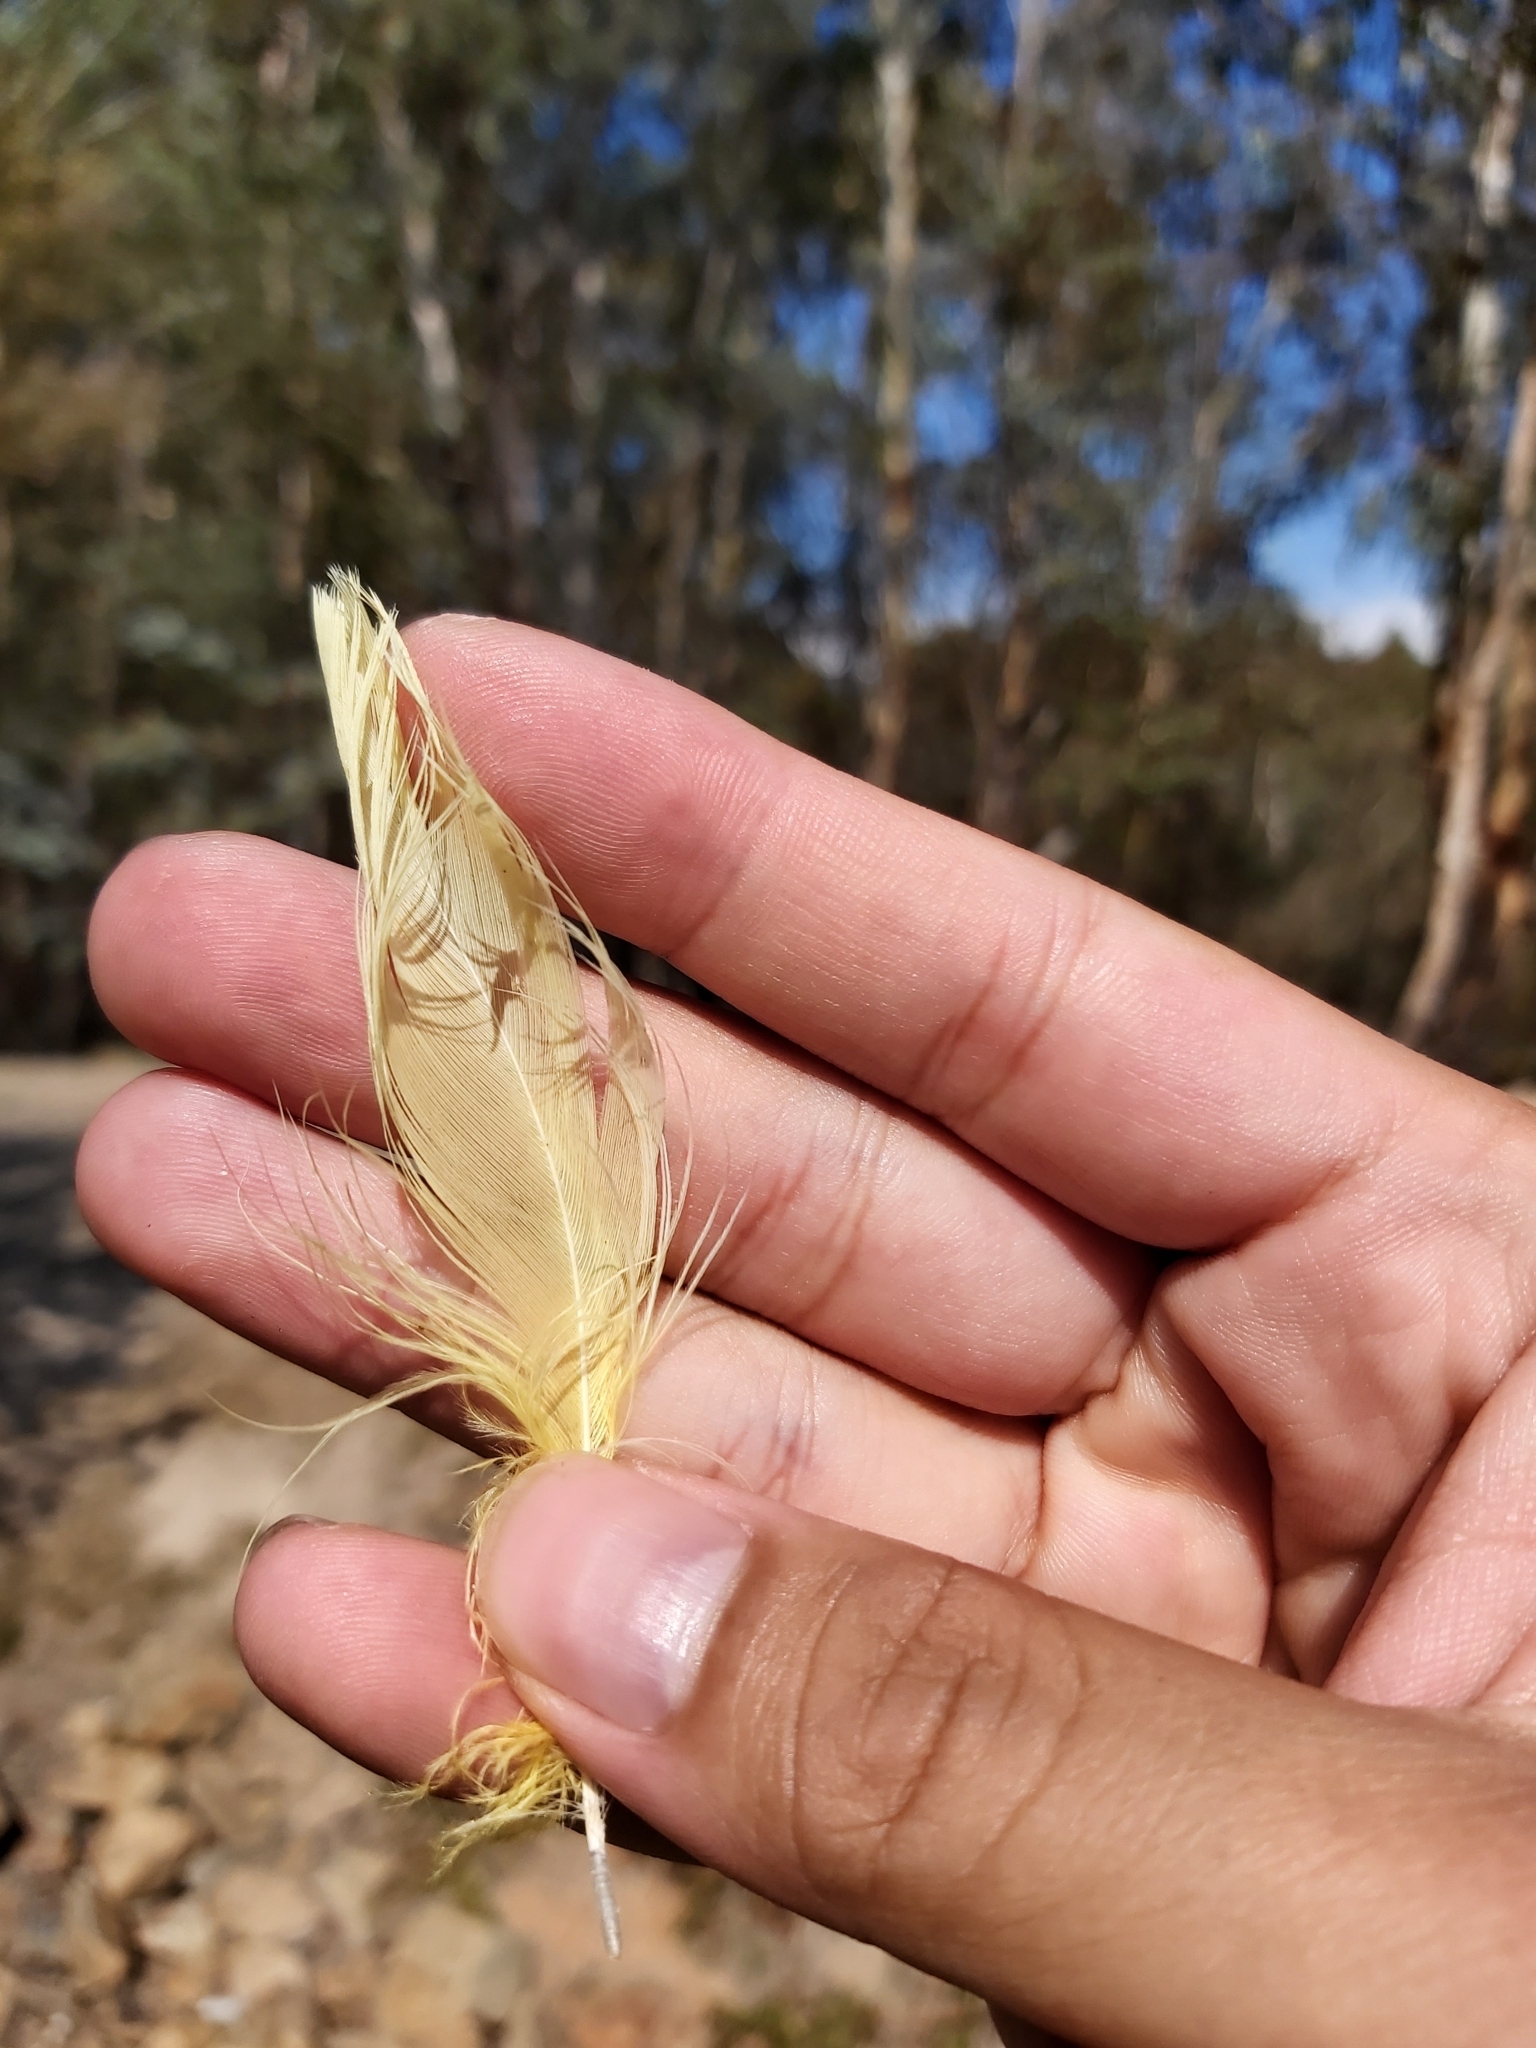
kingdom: Animalia
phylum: Chordata
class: Aves
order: Psittaciformes
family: Psittacidae
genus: Cacatua
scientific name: Cacatua galerita
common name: Sulphur-crested cockatoo
